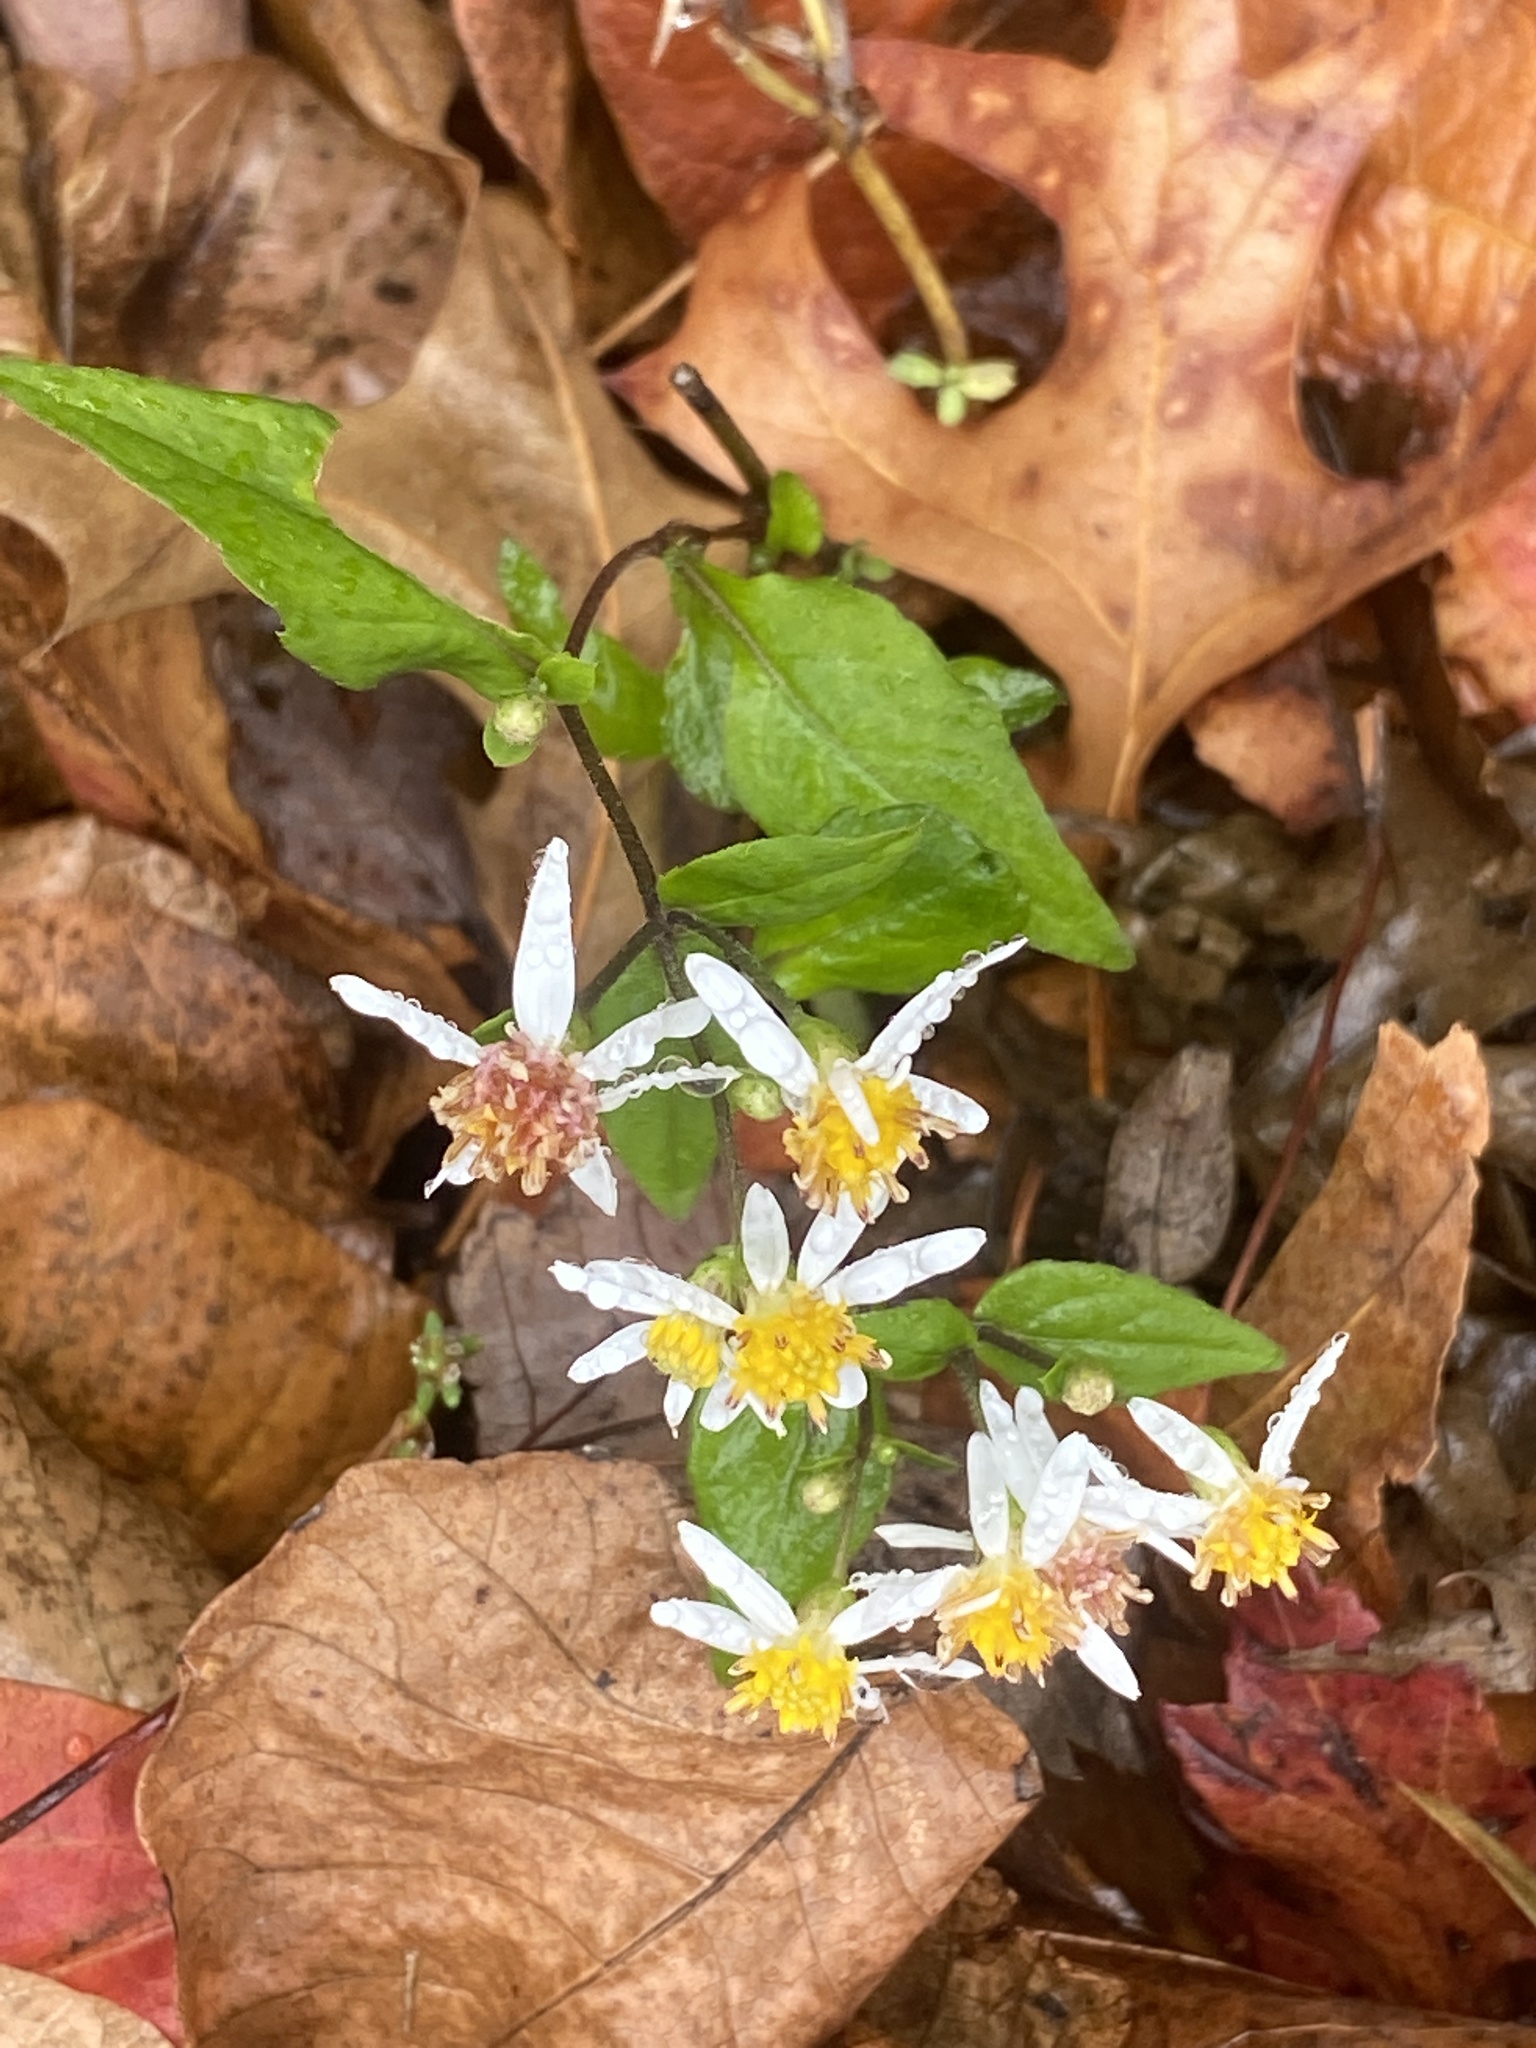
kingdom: Plantae
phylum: Tracheophyta
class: Magnoliopsida
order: Asterales
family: Asteraceae
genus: Eurybia
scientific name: Eurybia divaricata
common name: White wood aster
